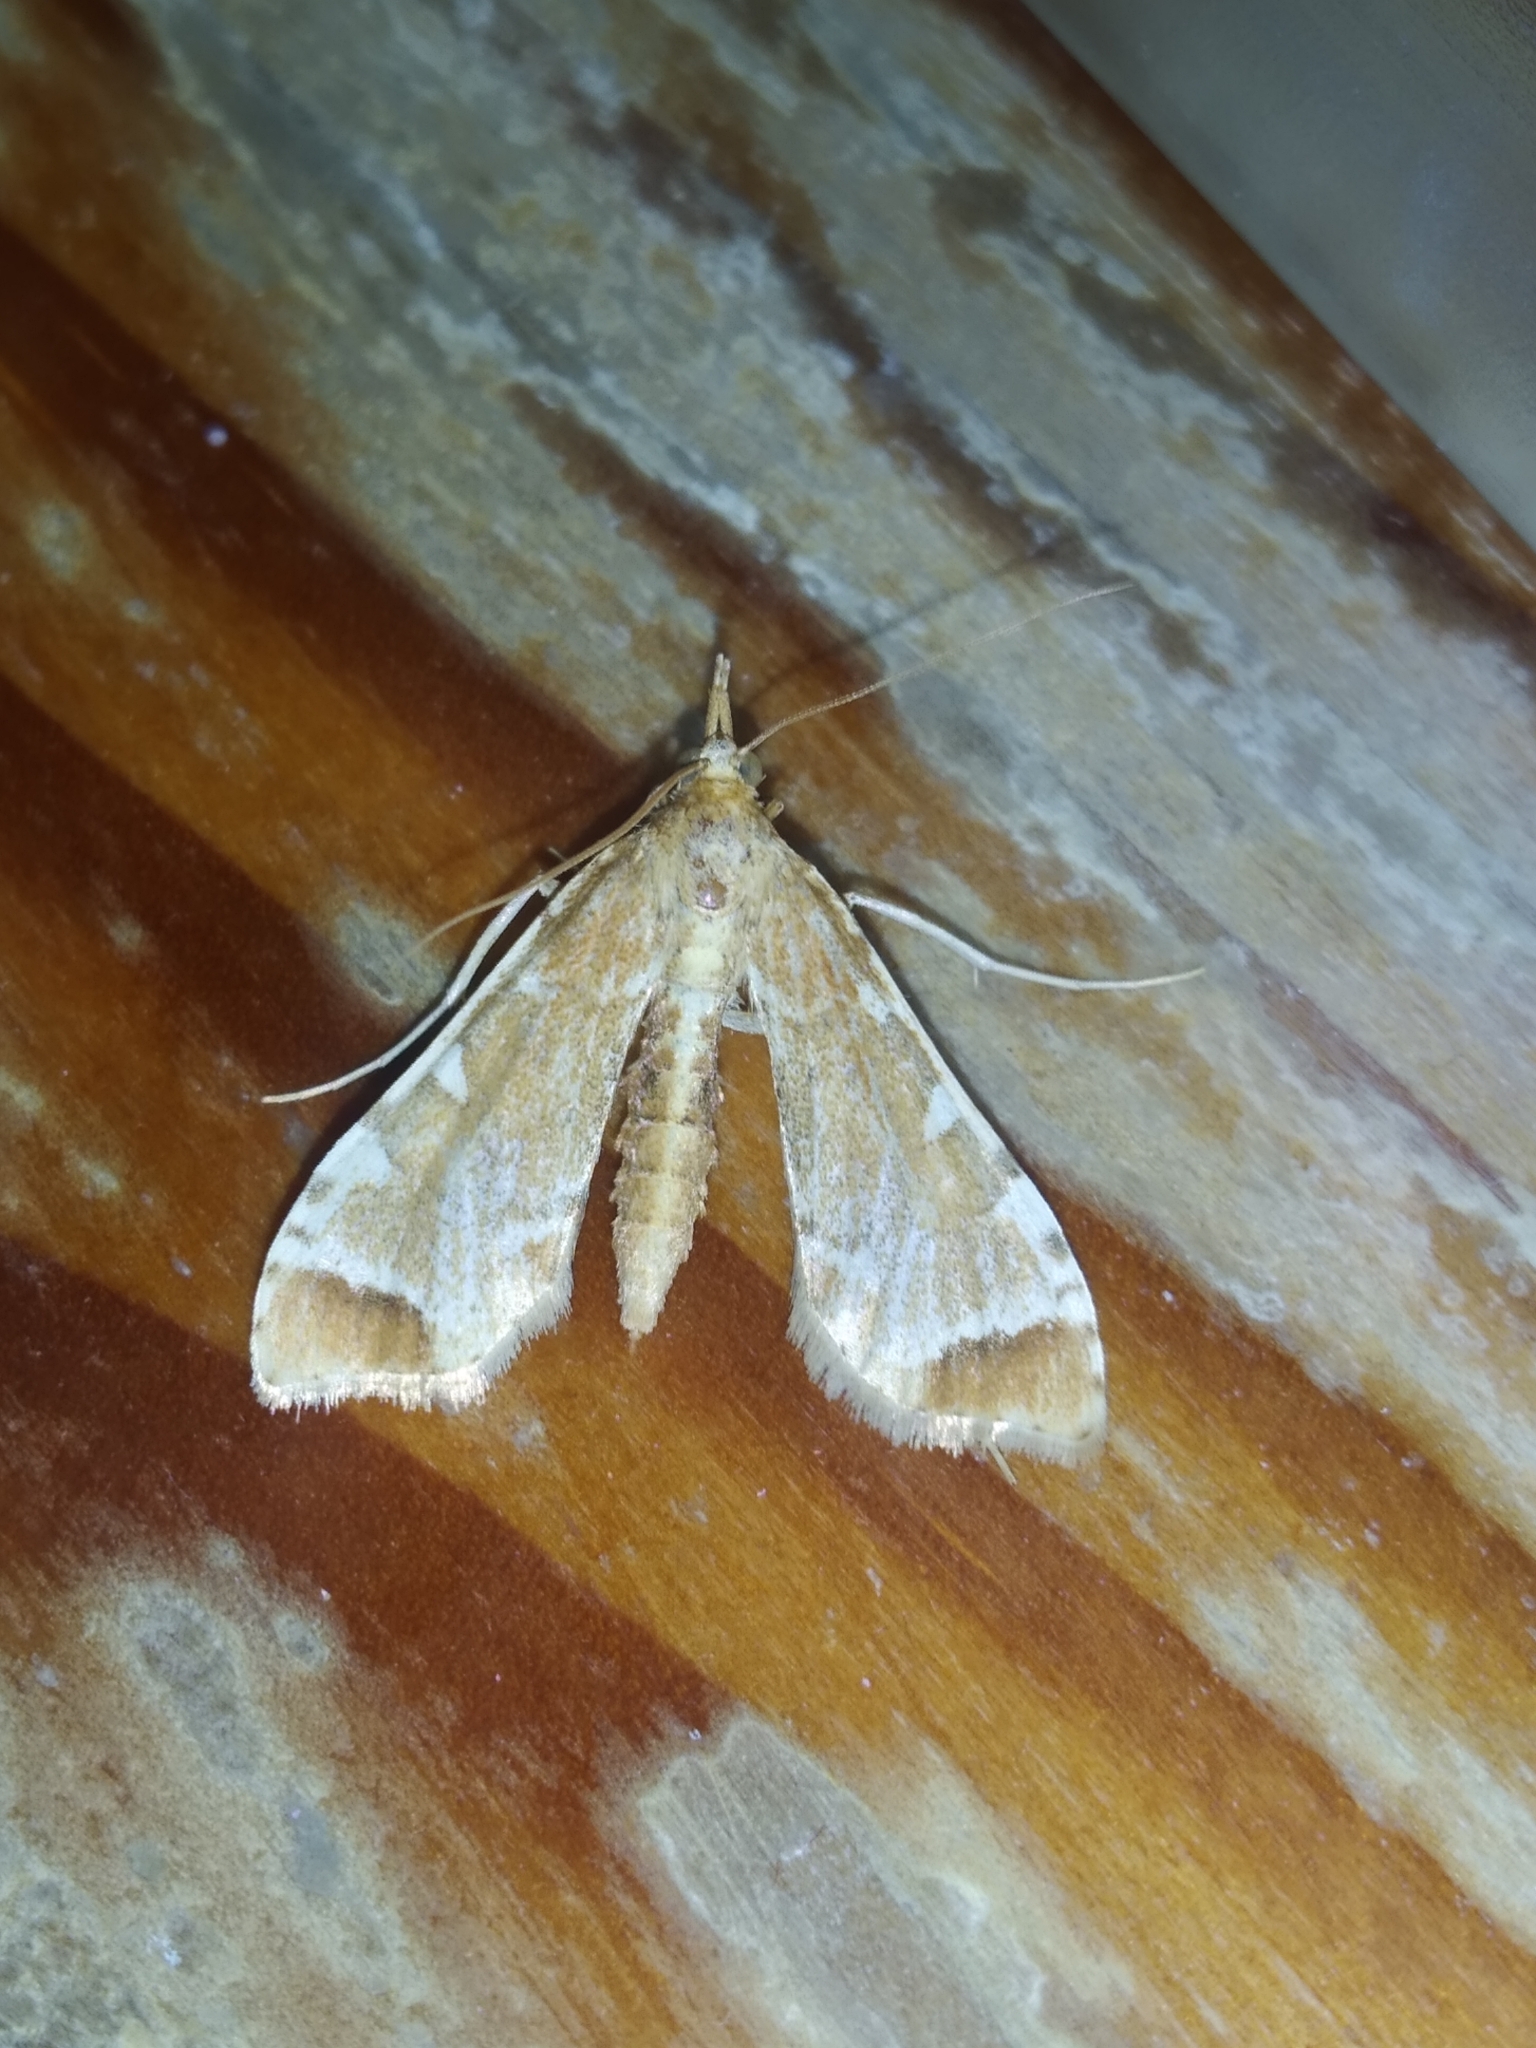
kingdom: Animalia
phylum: Arthropoda
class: Insecta
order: Lepidoptera
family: Crambidae
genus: Sceliodes
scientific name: Sceliodes cordalis
